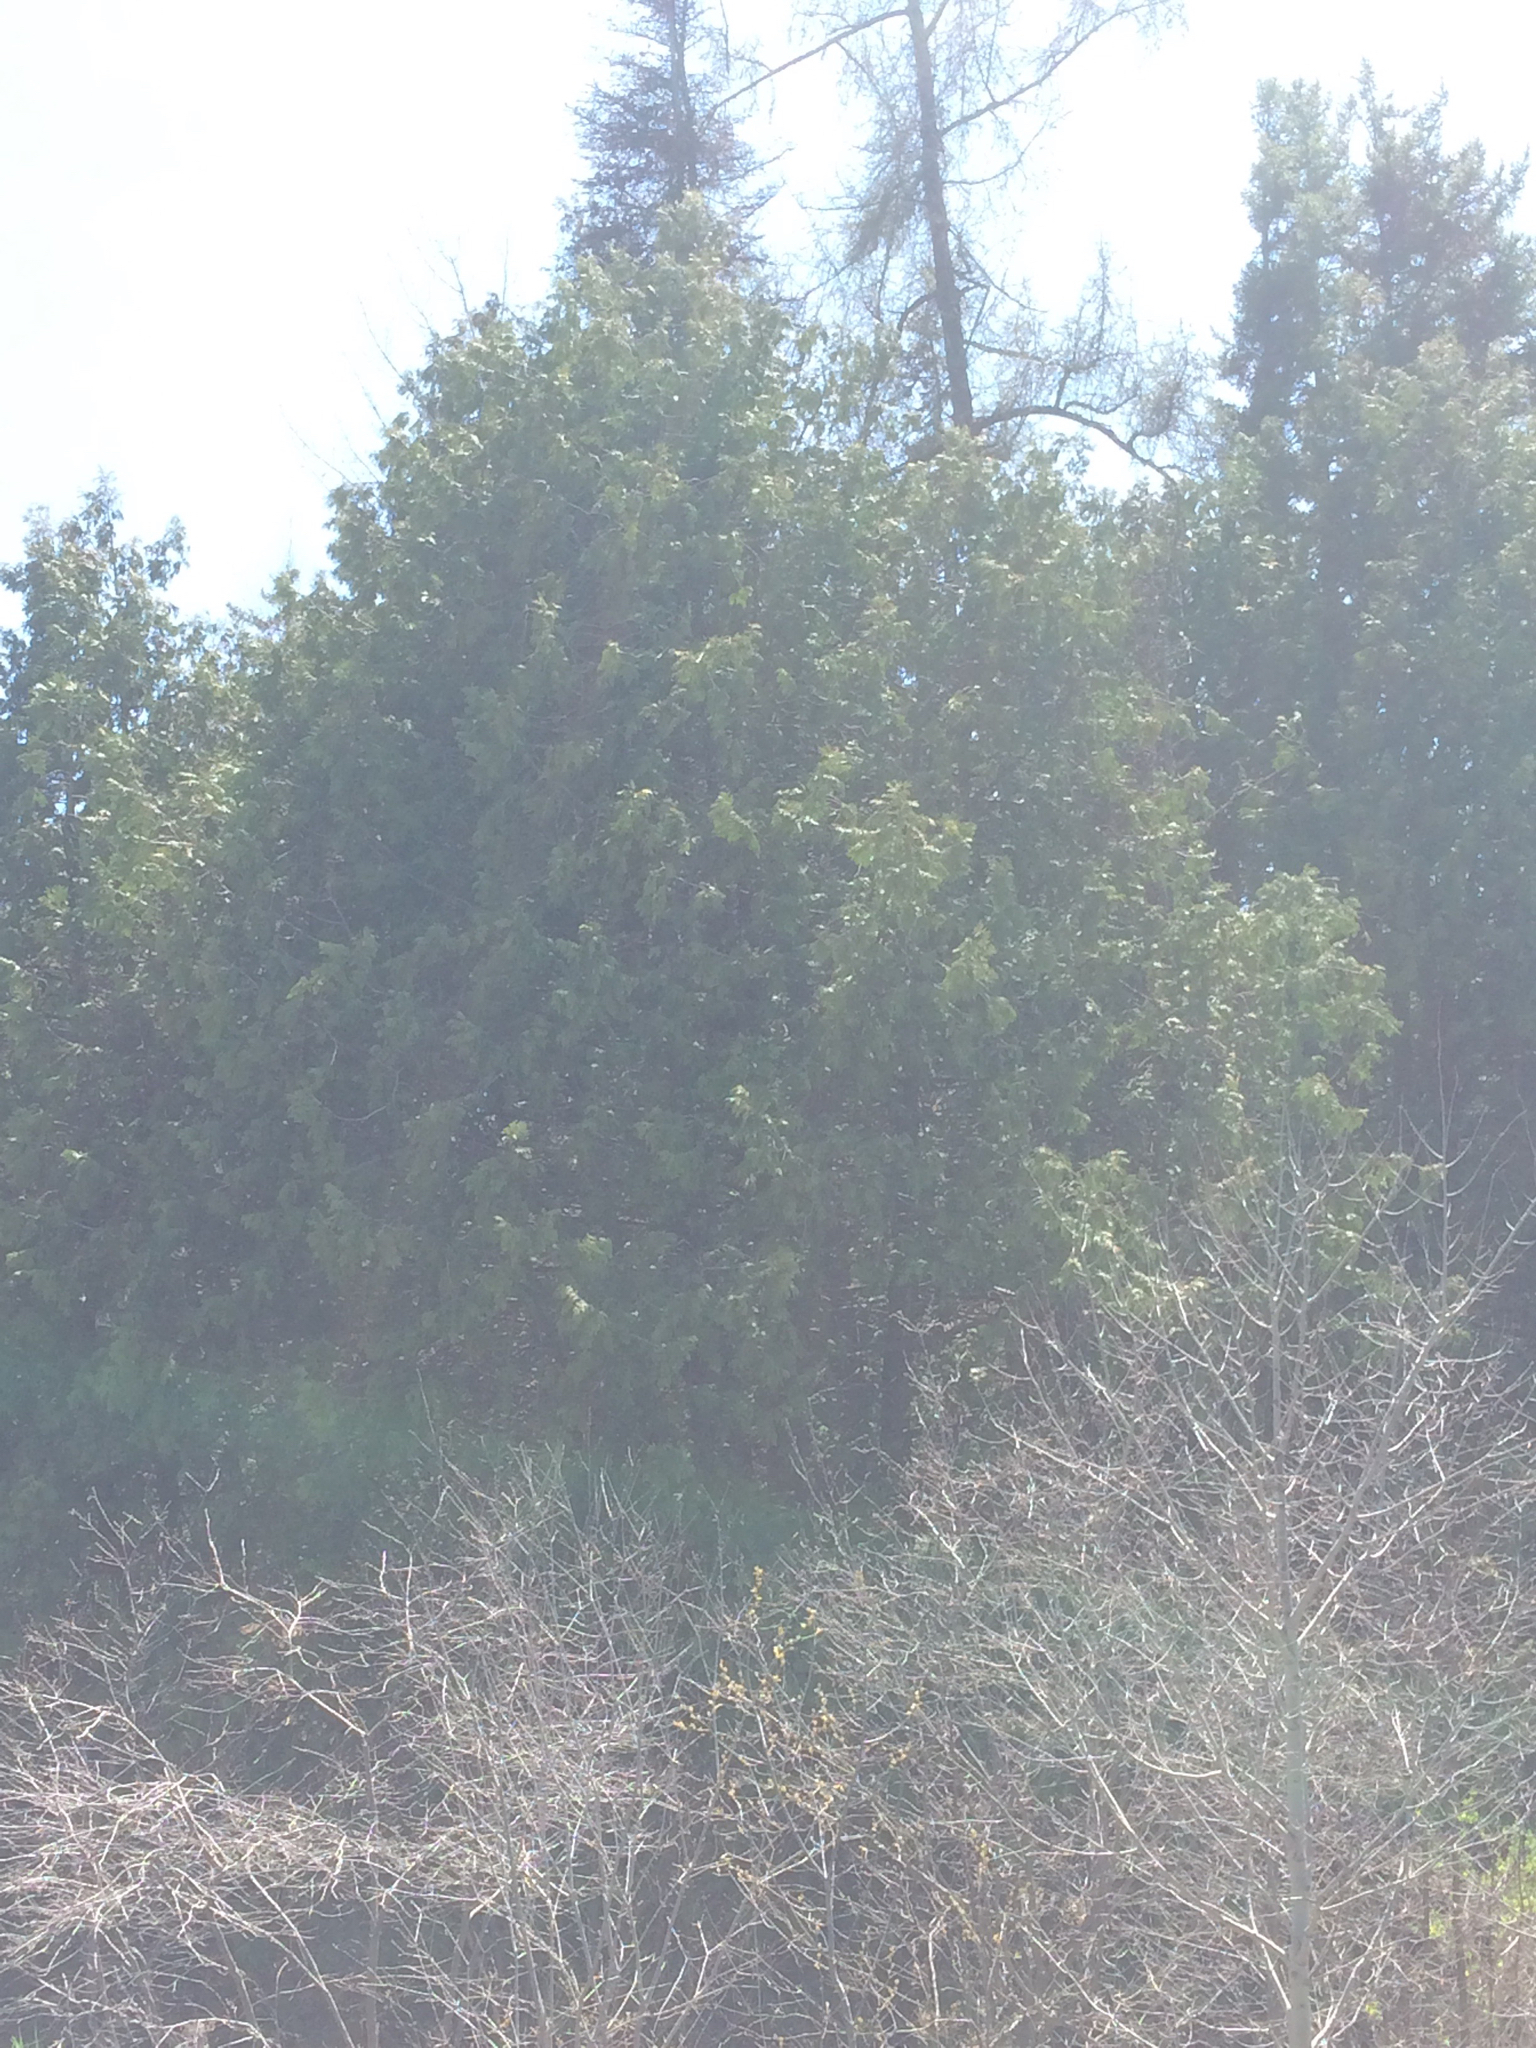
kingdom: Plantae
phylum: Tracheophyta
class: Pinopsida
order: Pinales
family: Cupressaceae
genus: Thuja
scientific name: Thuja occidentalis
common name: Northern white-cedar
